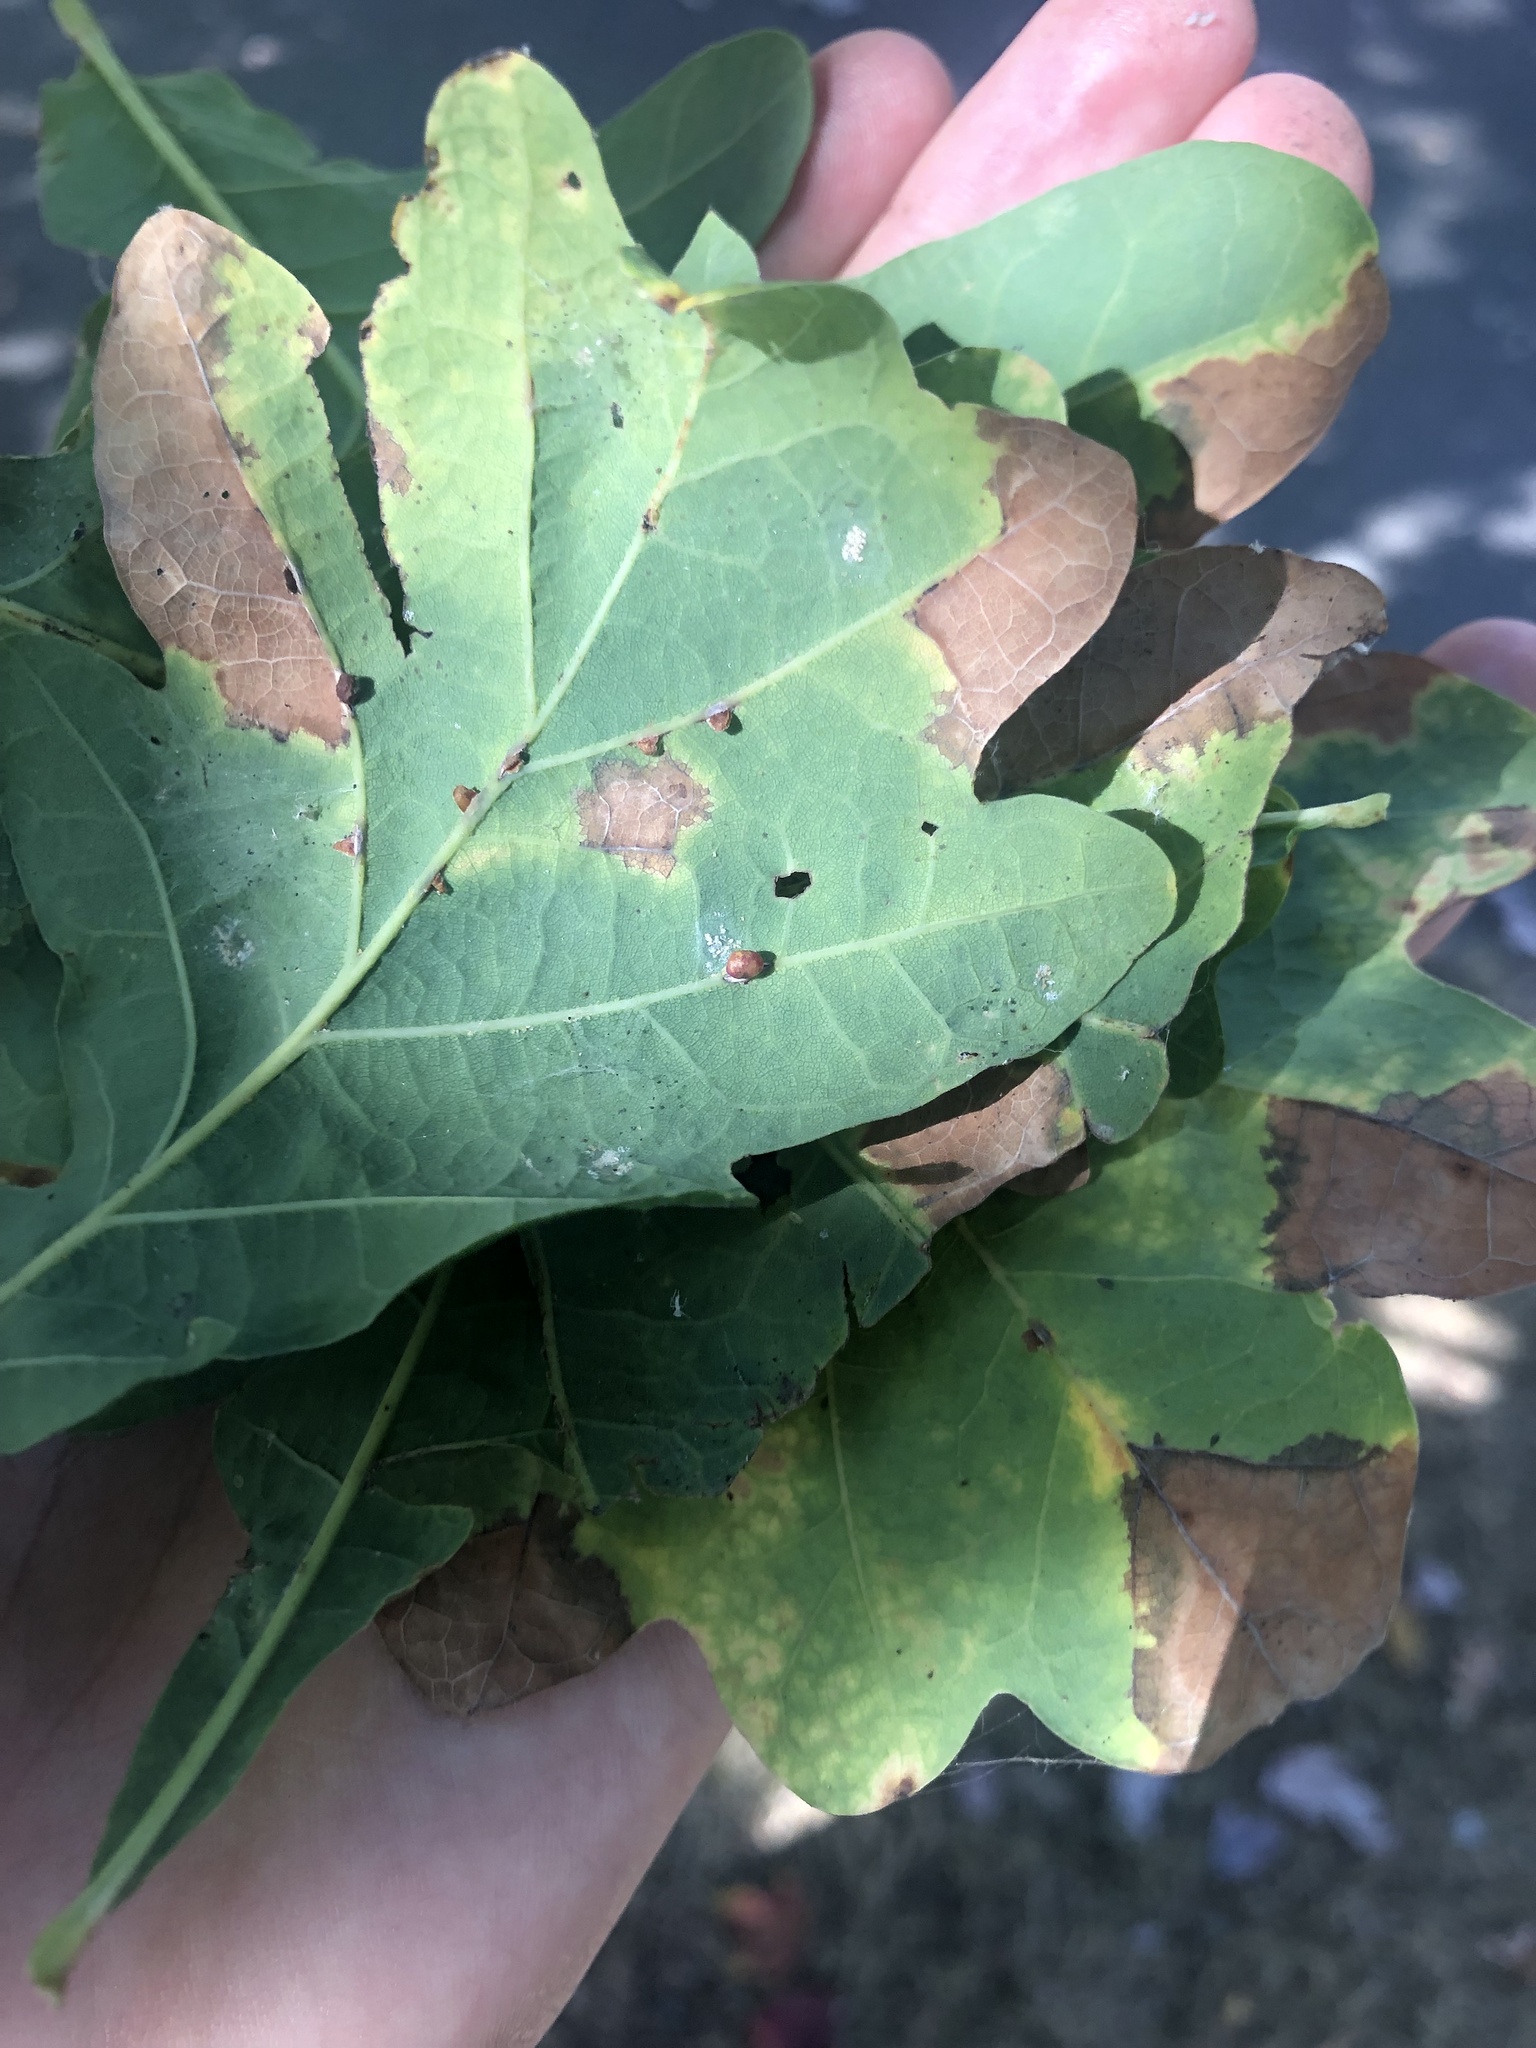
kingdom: Animalia
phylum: Arthropoda
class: Insecta
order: Hymenoptera
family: Cynipidae
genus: Neuroterus
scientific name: Neuroterus anthracinus
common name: Oyster gall
